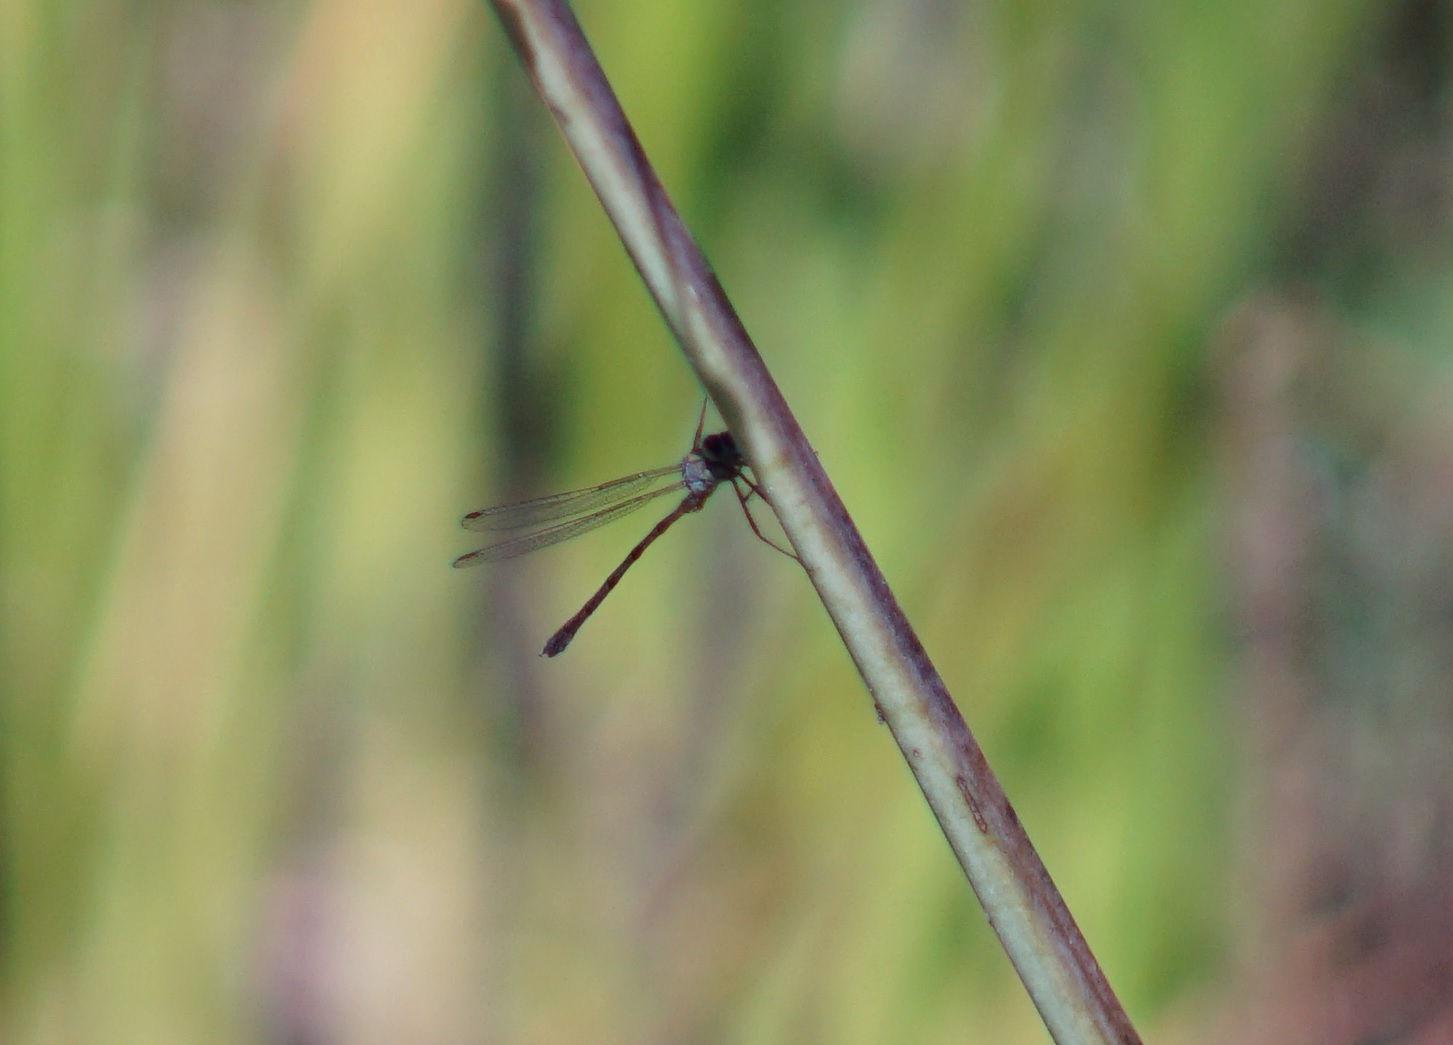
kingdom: Animalia
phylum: Arthropoda
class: Insecta
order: Odonata
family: Lestidae
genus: Chalcolestes
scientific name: Chalcolestes viridis
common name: Green emerald damselfly
